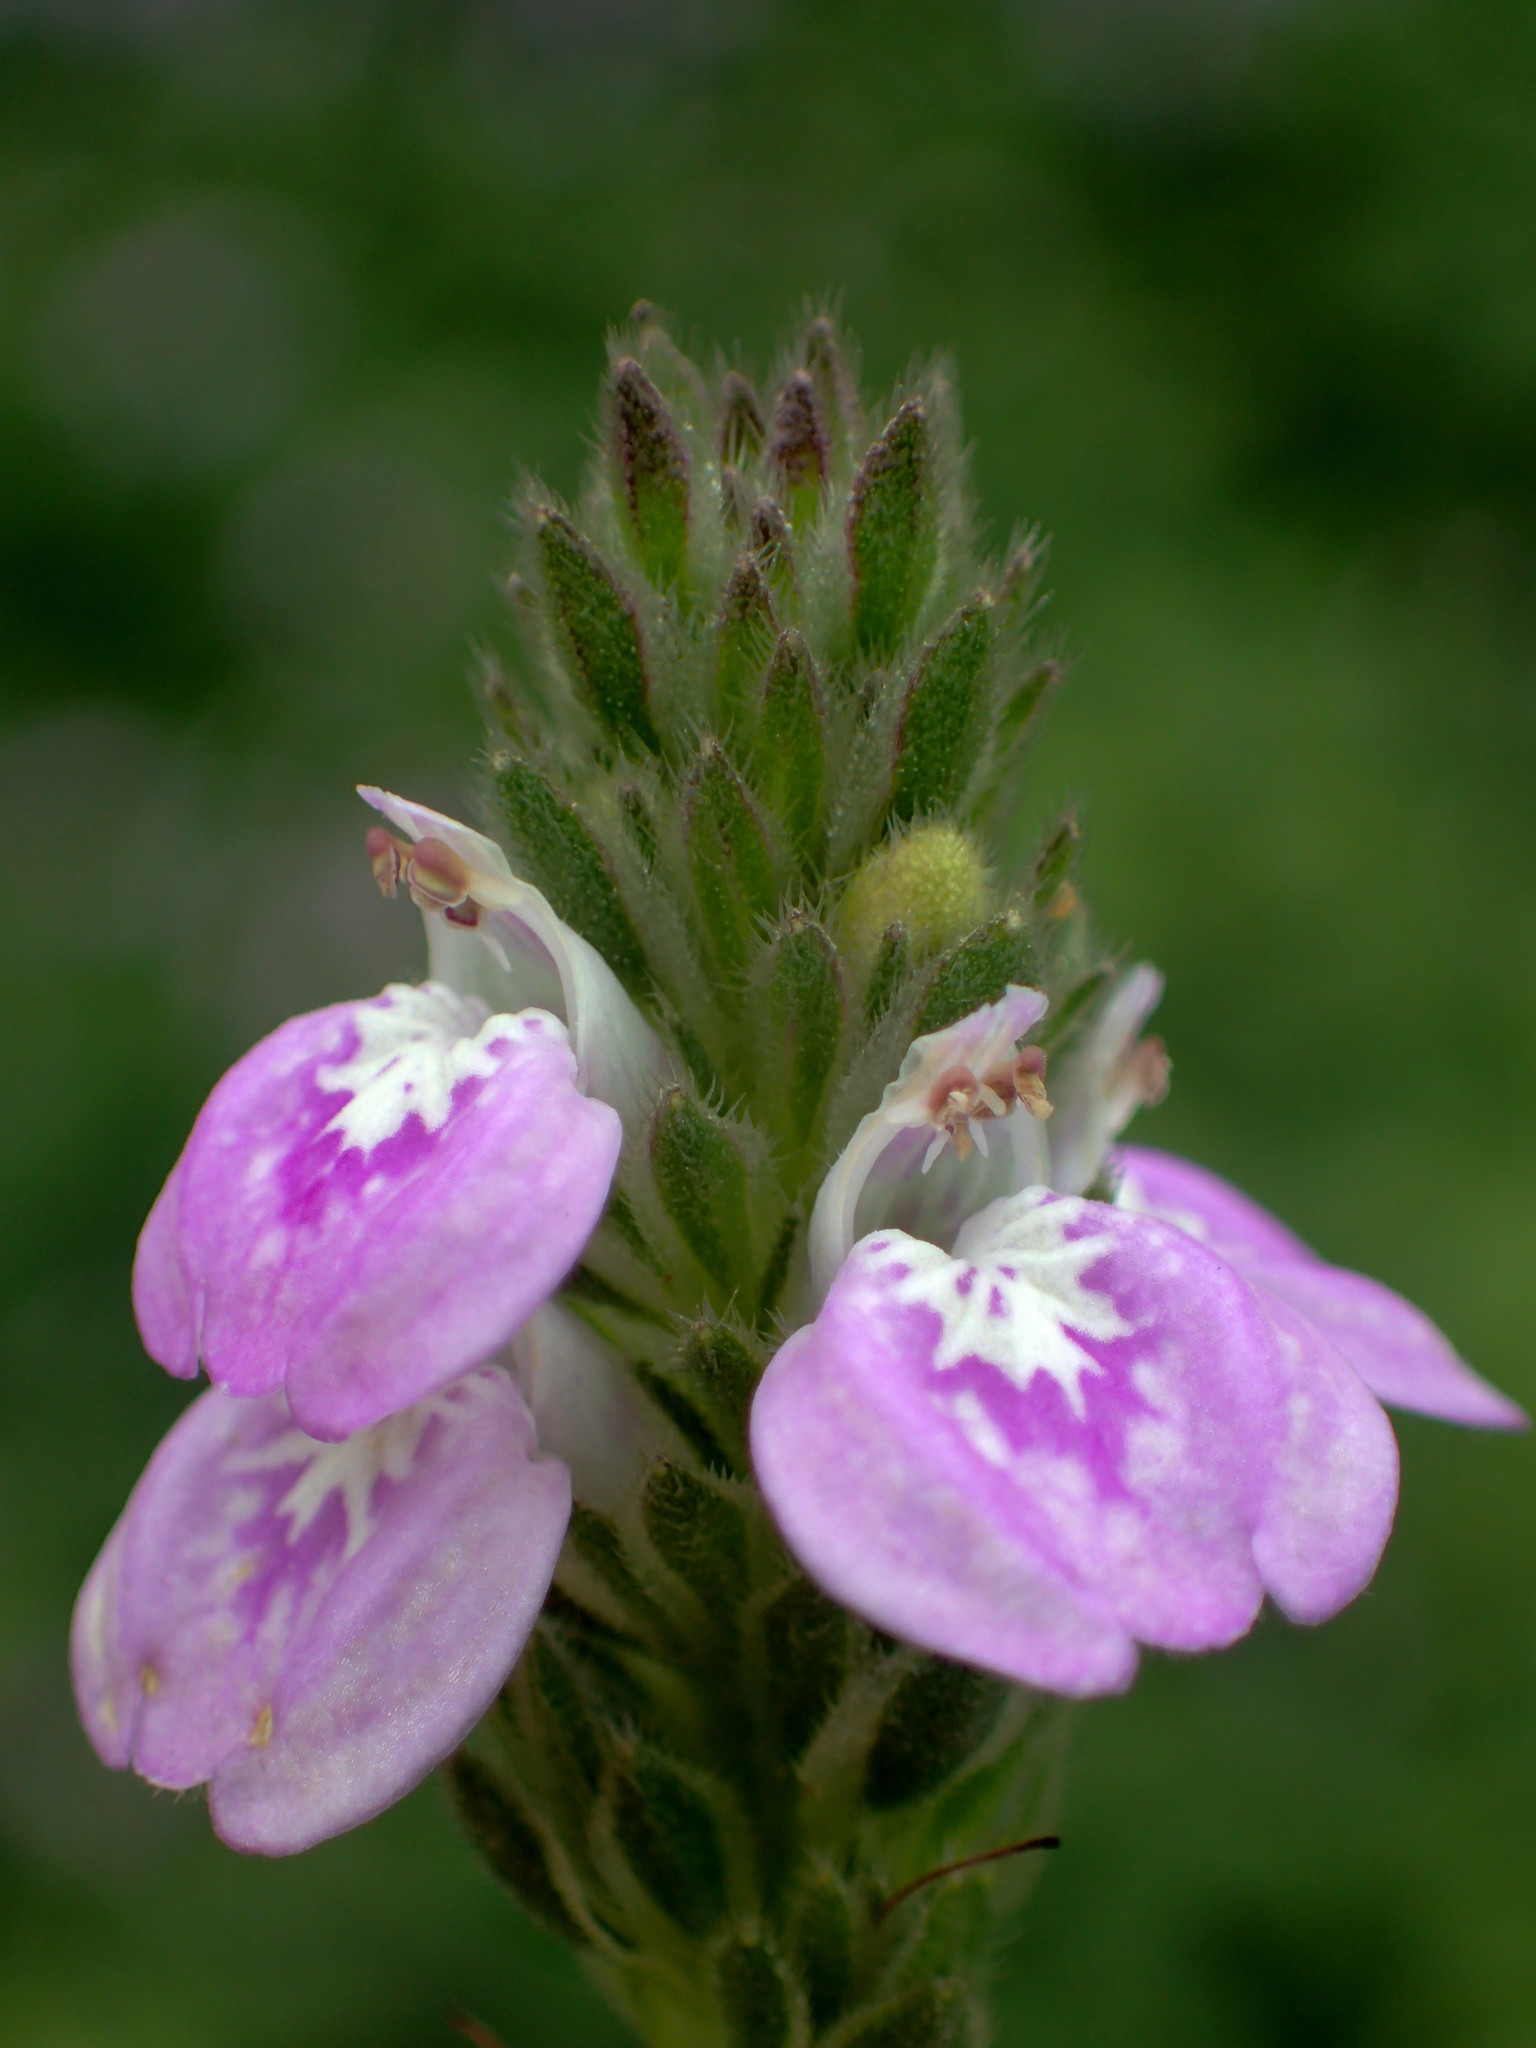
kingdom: Plantae
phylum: Tracheophyta
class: Magnoliopsida
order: Lamiales
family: Acanthaceae
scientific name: Acanthaceae
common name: Acanthaceae
